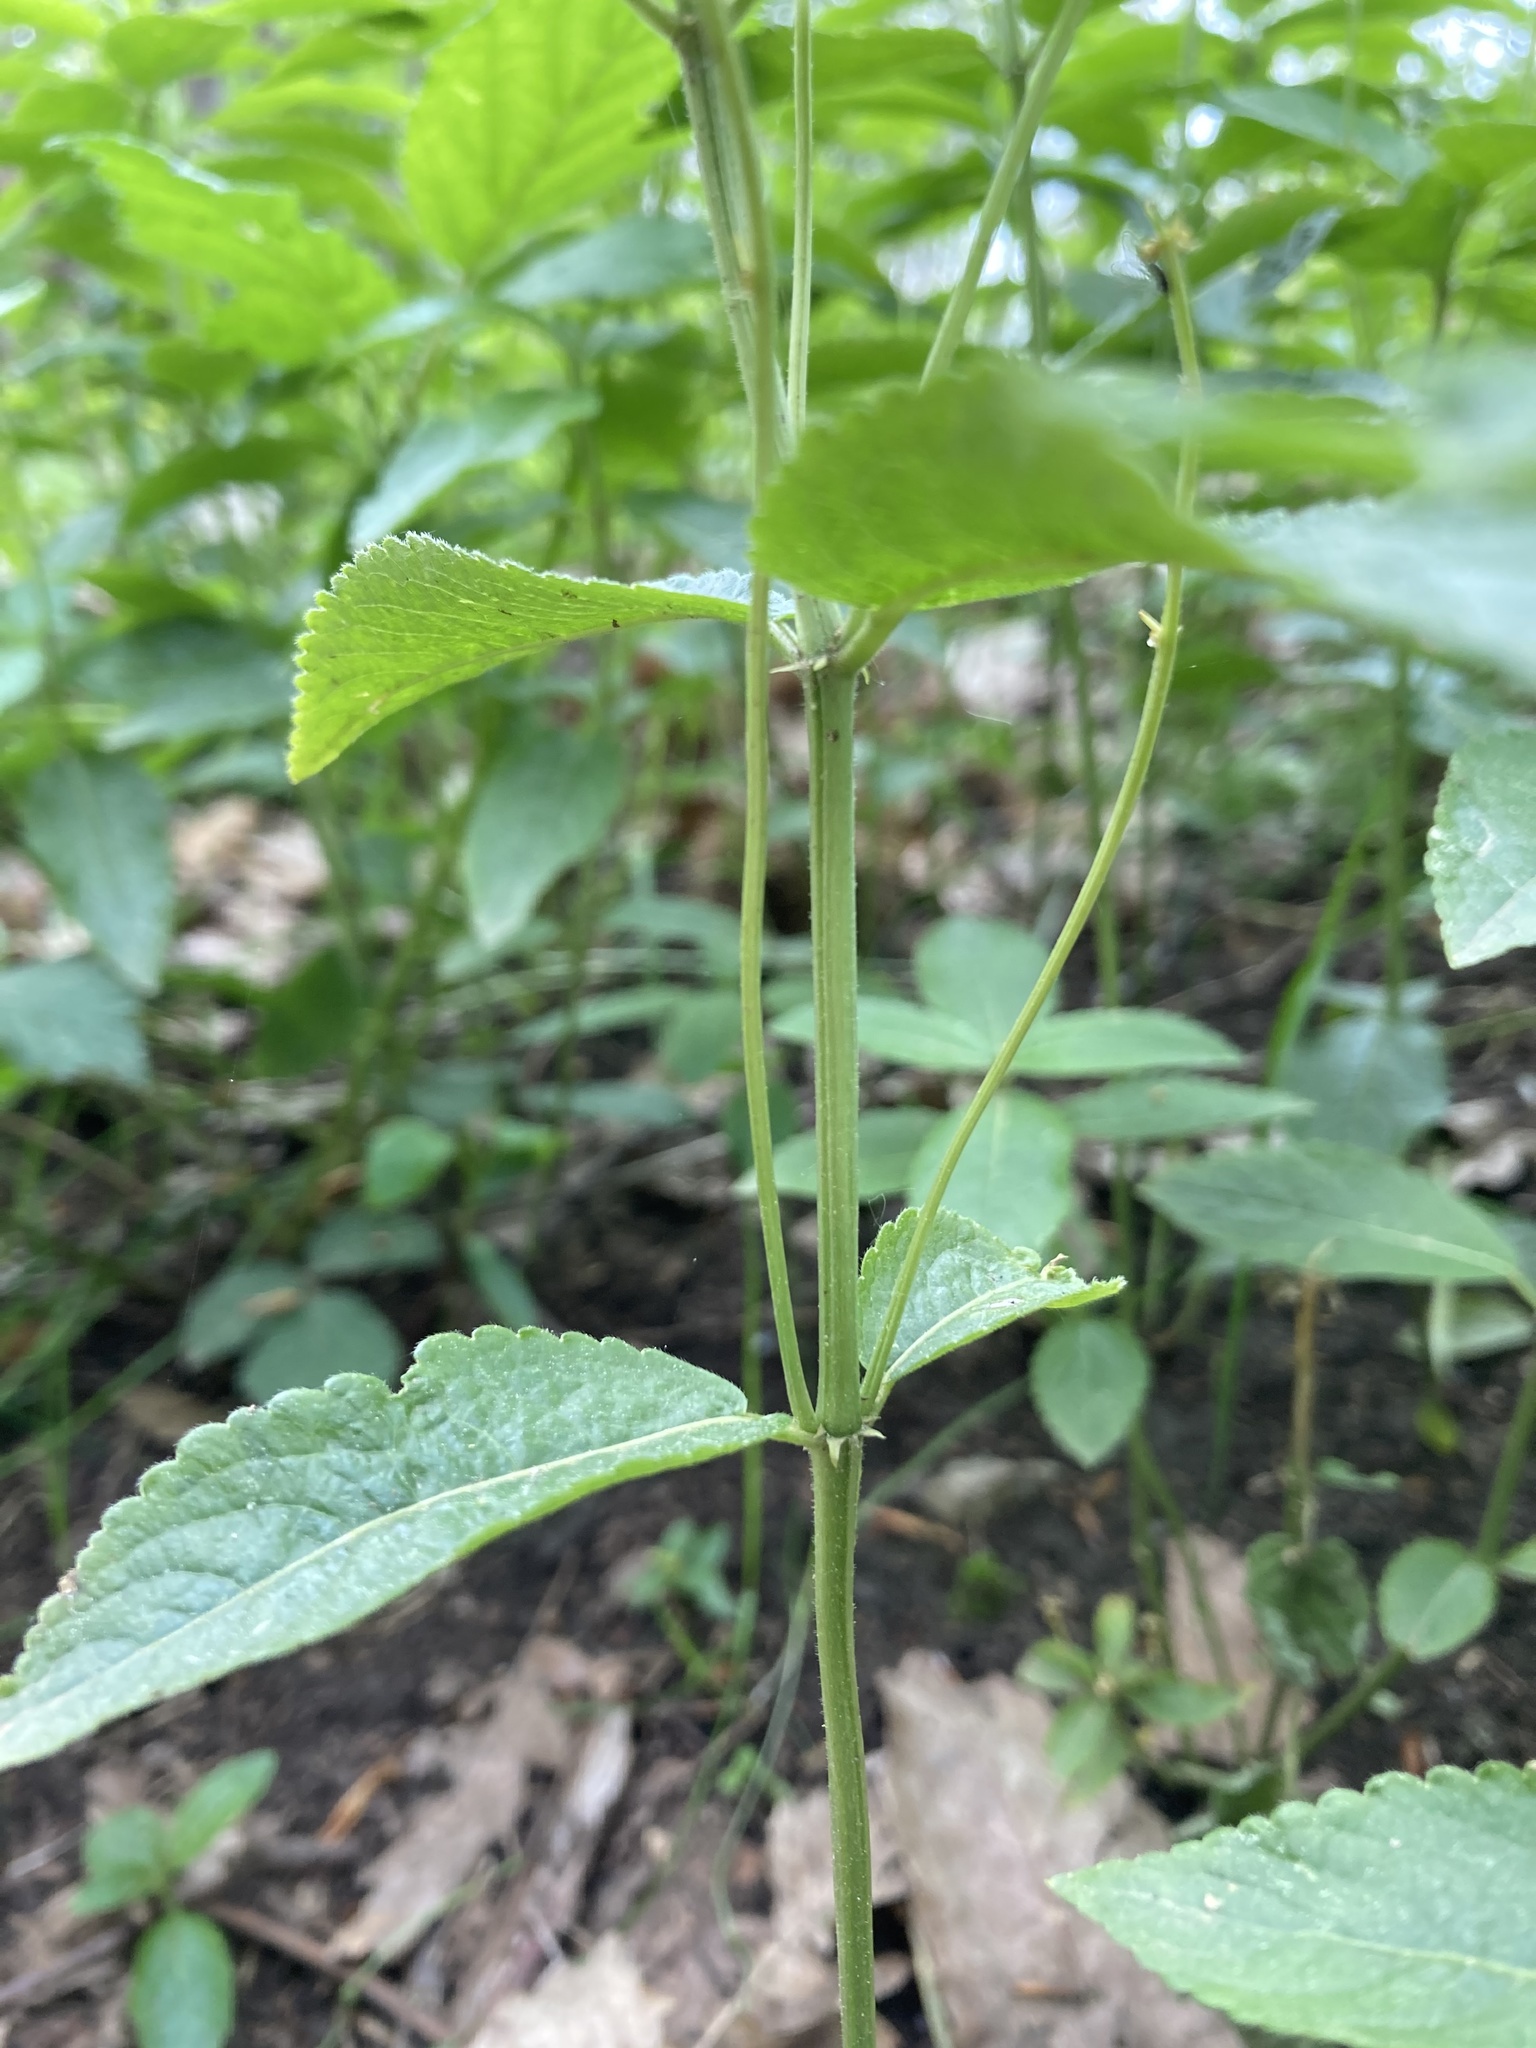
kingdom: Plantae
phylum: Tracheophyta
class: Magnoliopsida
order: Malpighiales
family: Euphorbiaceae
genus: Mercurialis
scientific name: Mercurialis perennis
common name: Dog mercury
